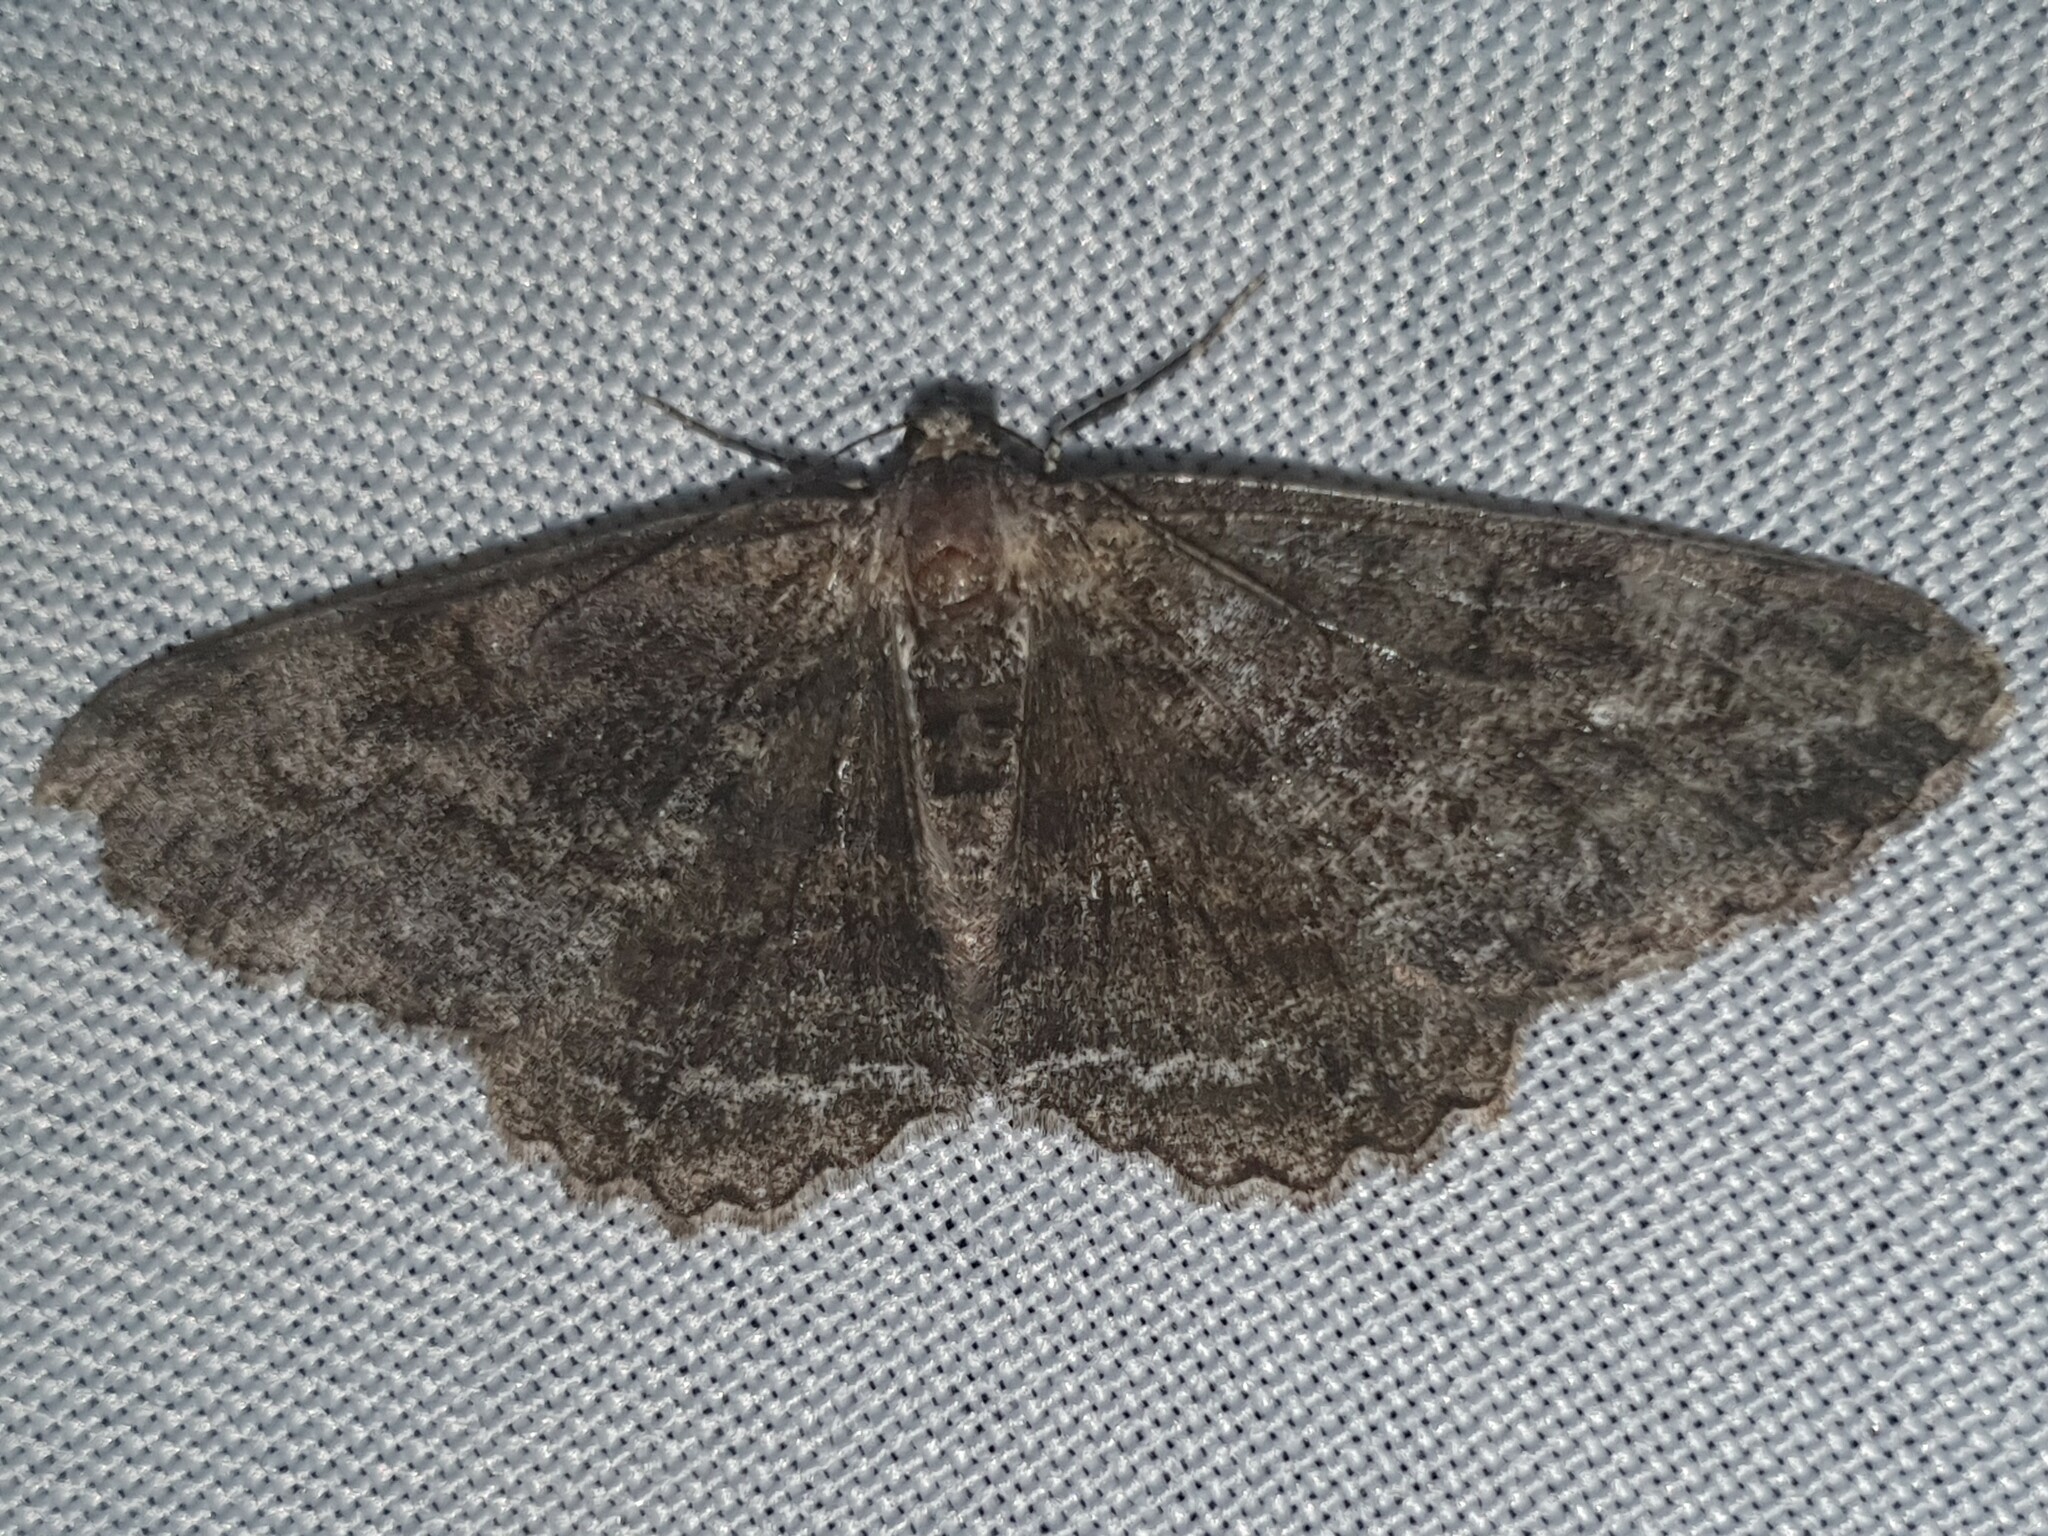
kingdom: Animalia
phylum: Arthropoda
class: Insecta
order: Lepidoptera
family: Geometridae
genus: Alcis
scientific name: Alcis repandata
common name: Mottled beauty
